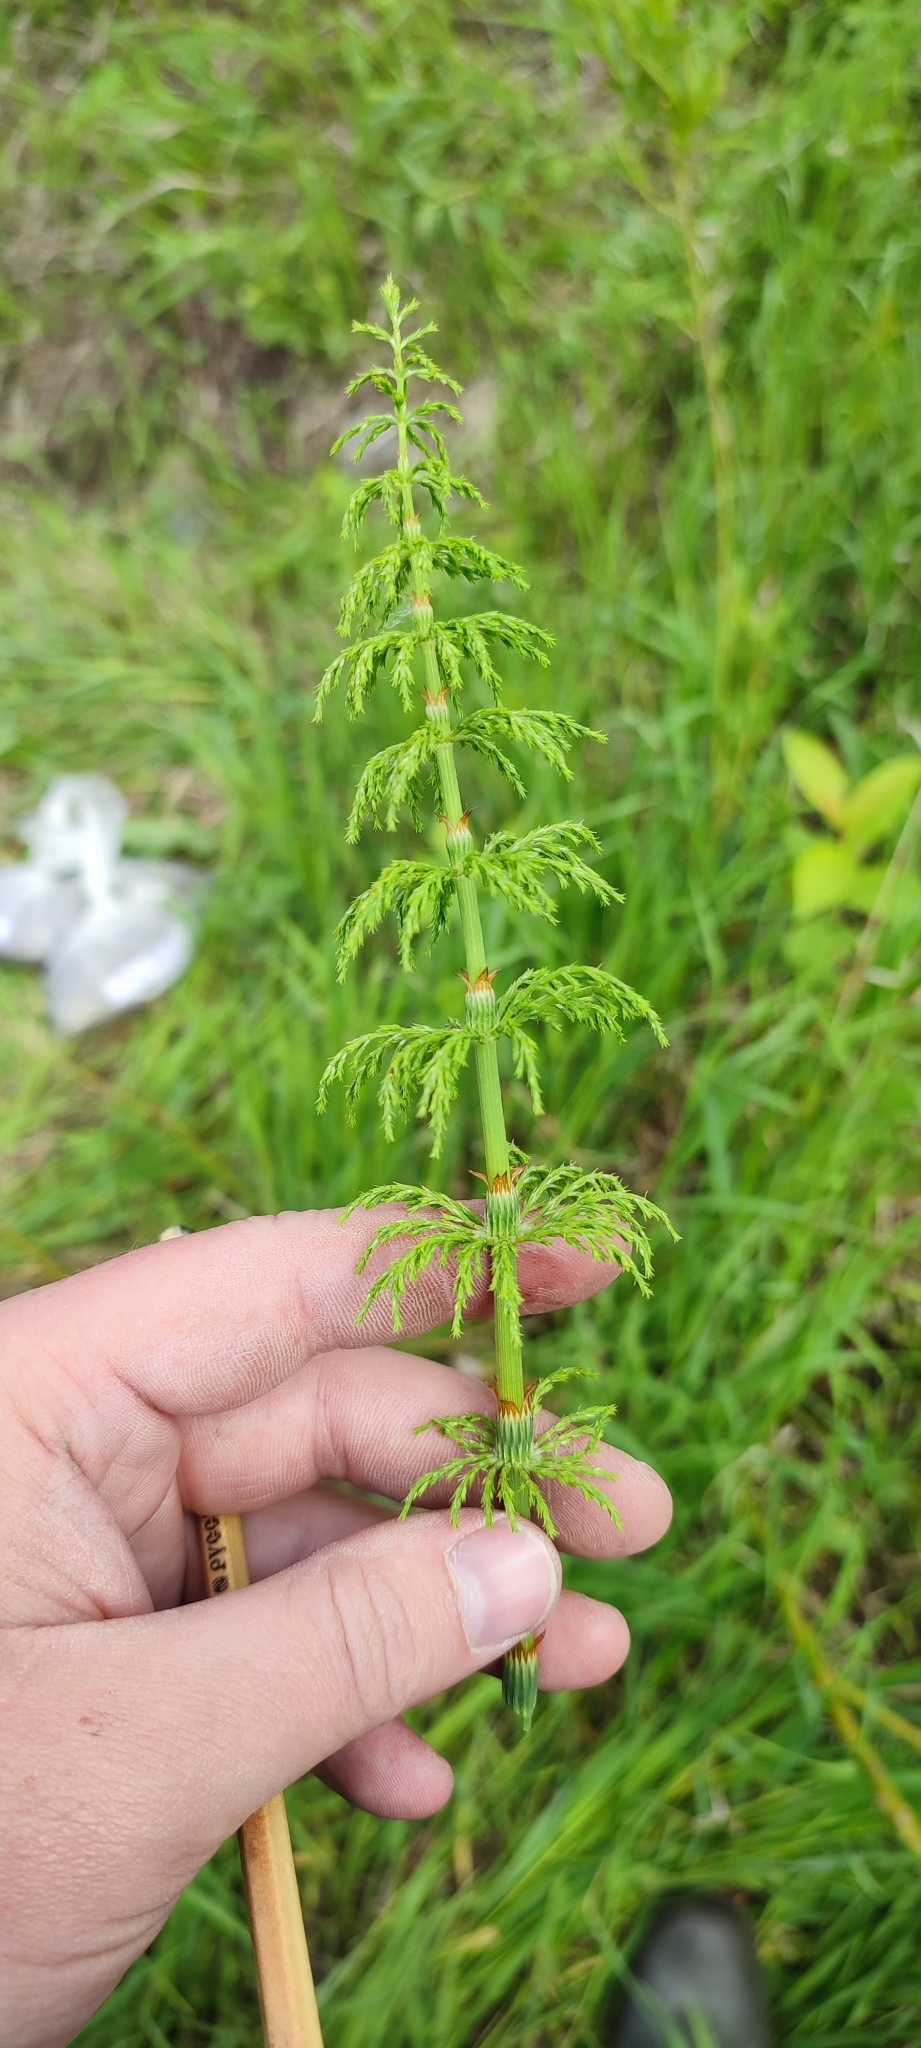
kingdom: Plantae
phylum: Tracheophyta
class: Polypodiopsida
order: Equisetales
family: Equisetaceae
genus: Equisetum
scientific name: Equisetum sylvaticum
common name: Wood horsetail
